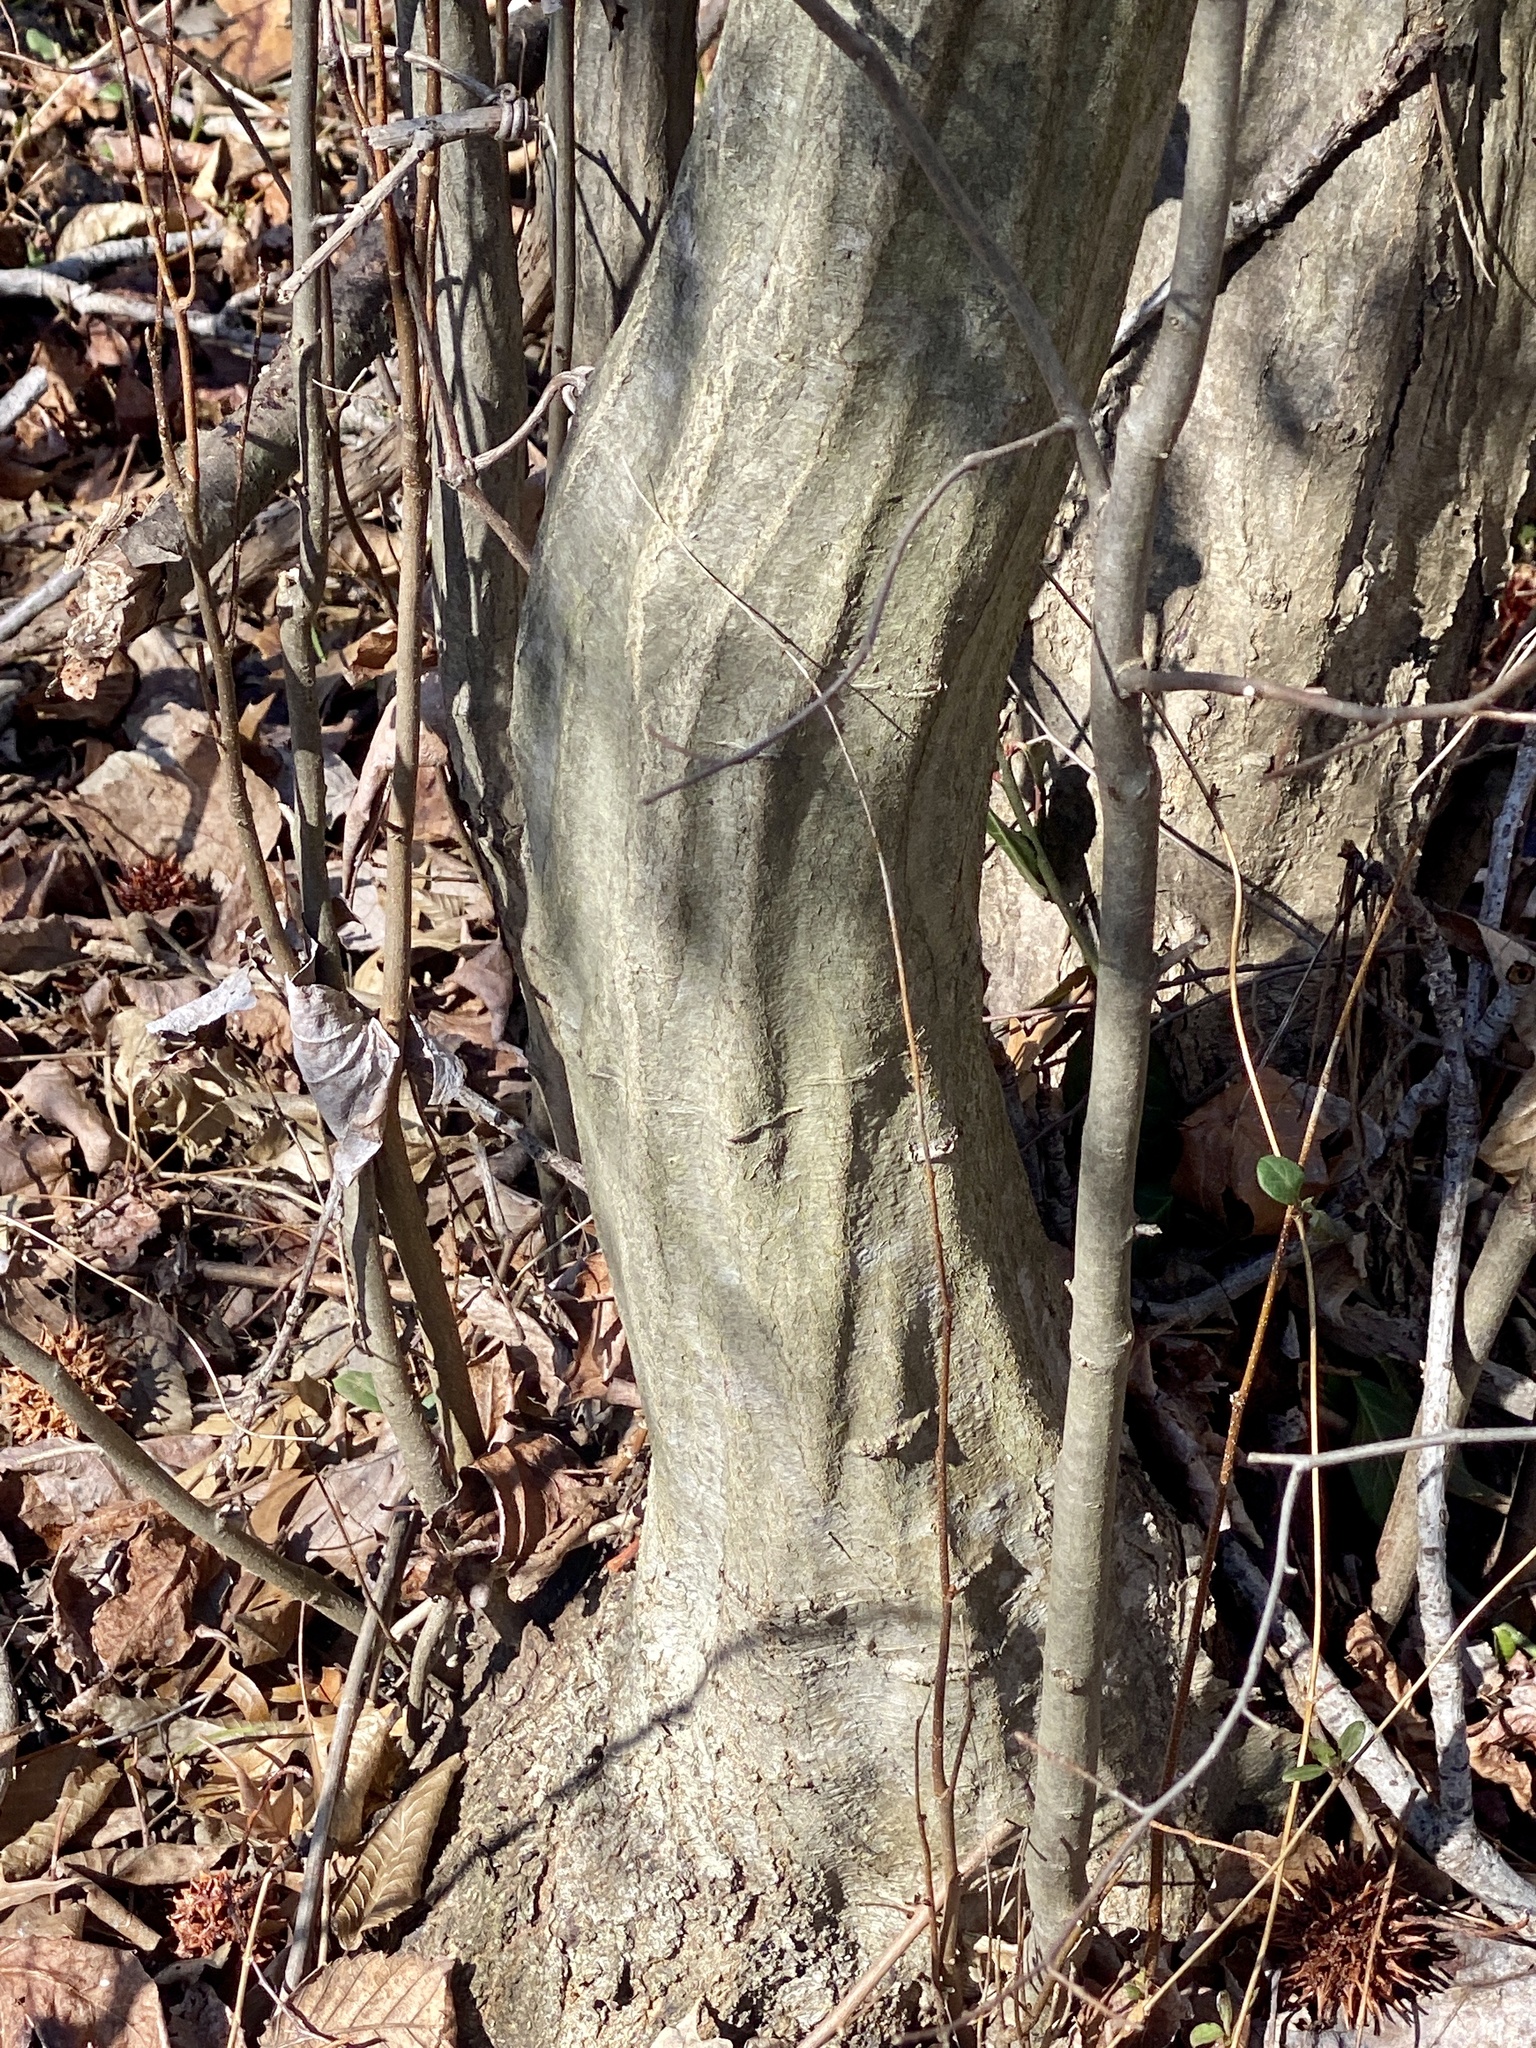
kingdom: Plantae
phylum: Tracheophyta
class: Magnoliopsida
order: Fagales
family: Betulaceae
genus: Carpinus
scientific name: Carpinus caroliniana
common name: American hornbeam
